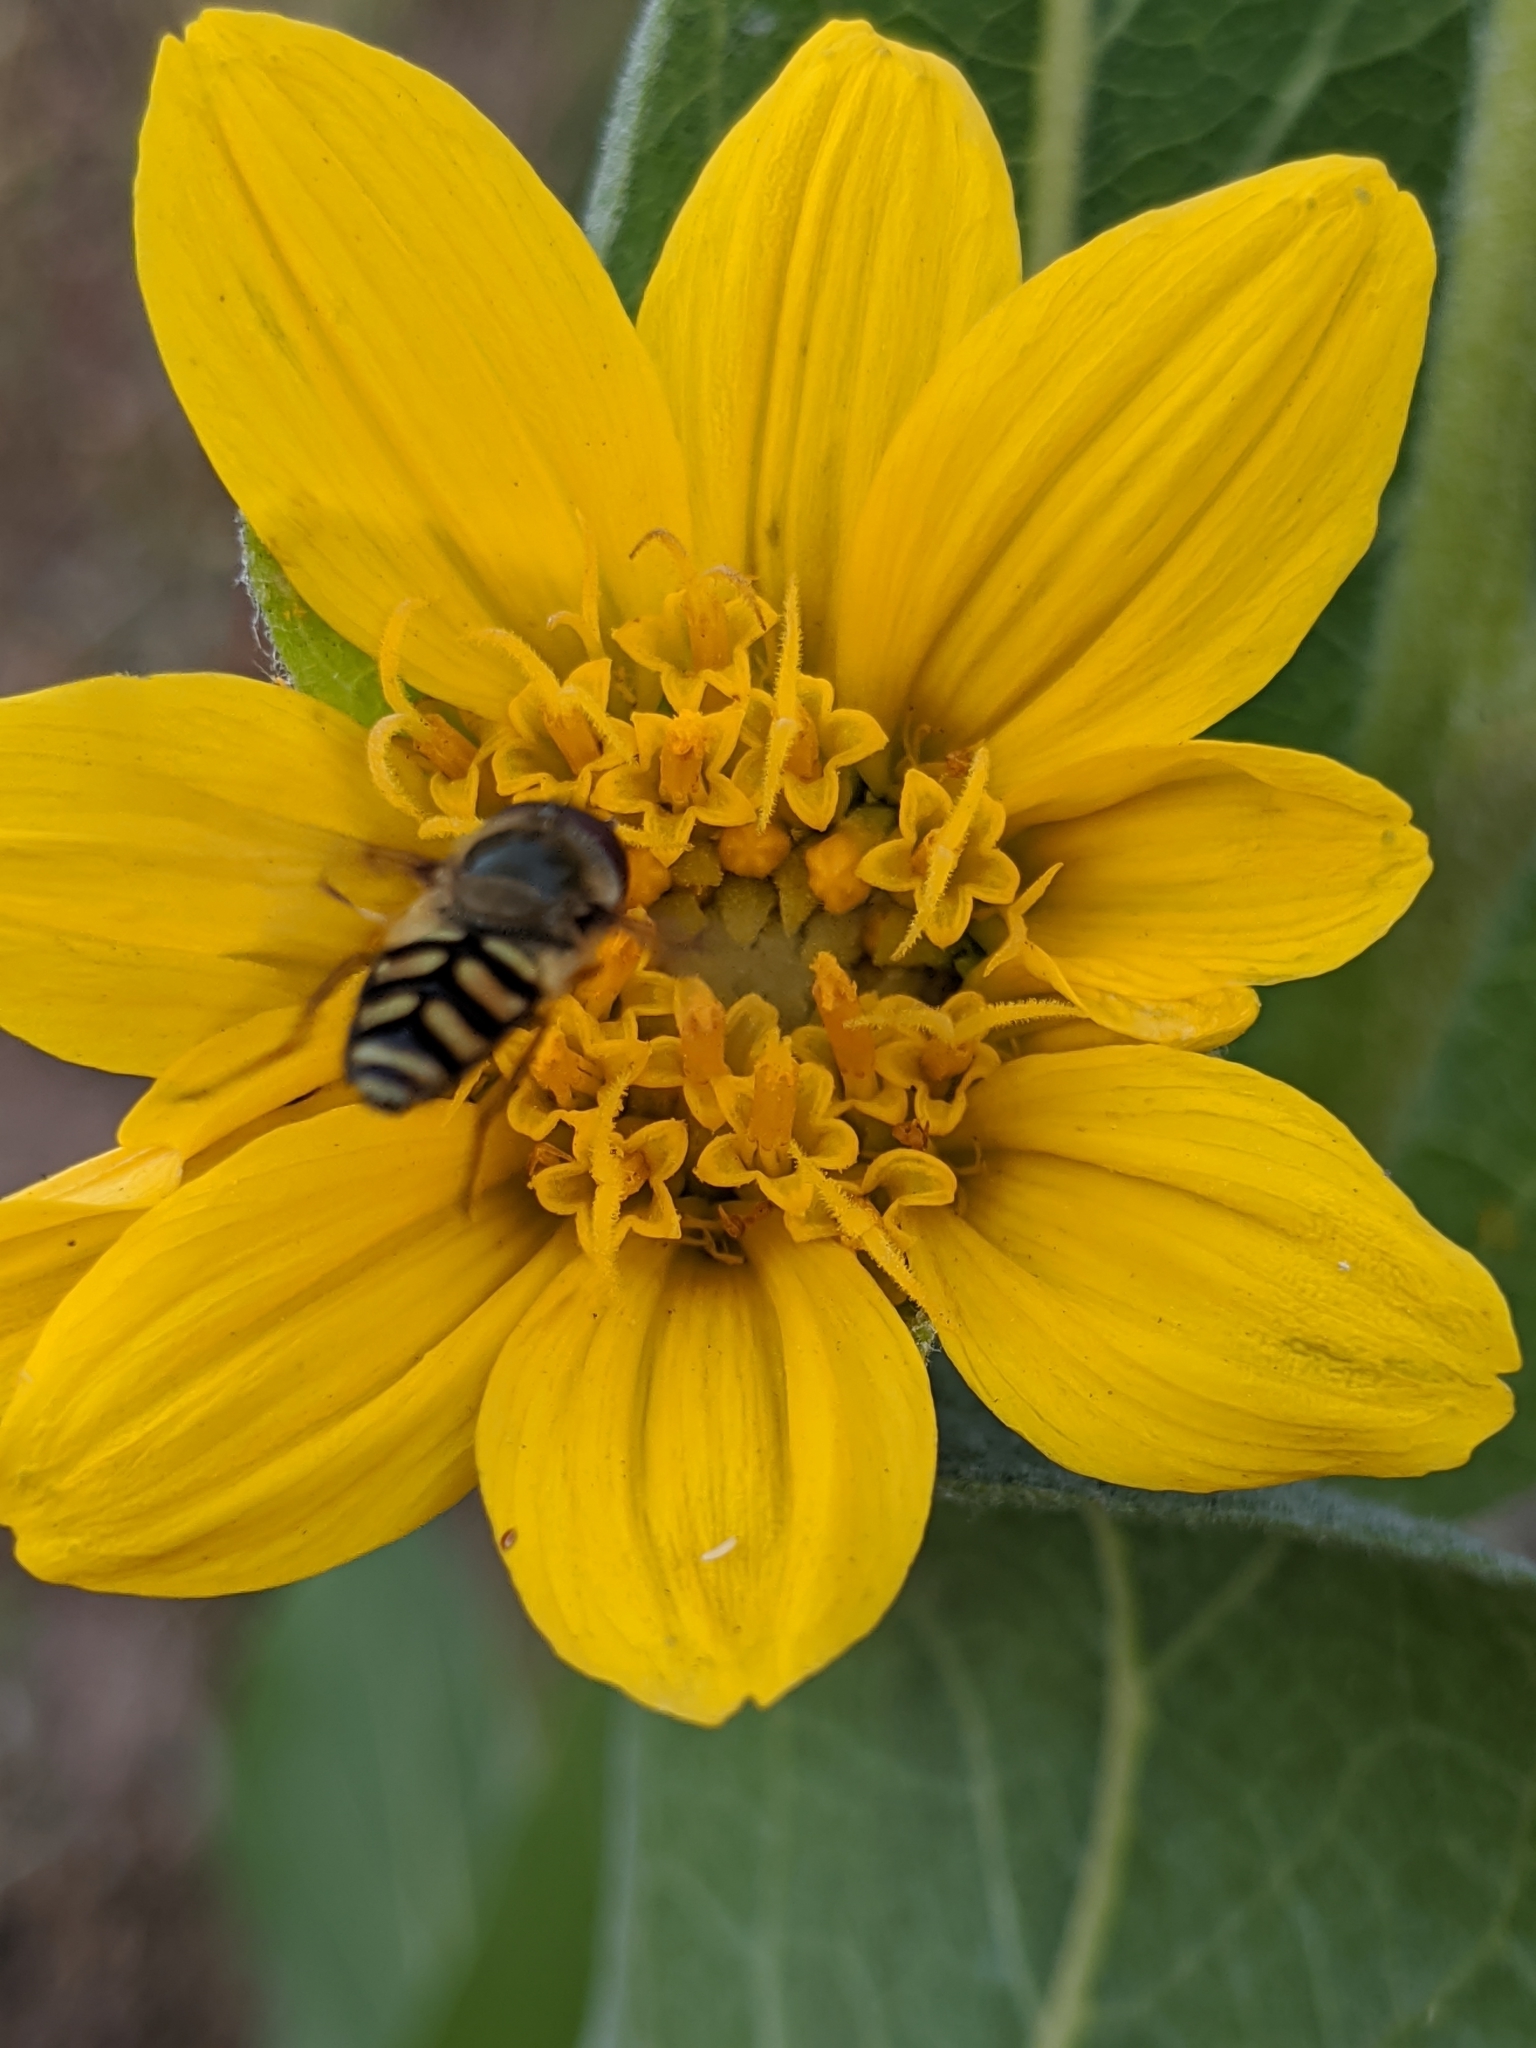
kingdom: Plantae
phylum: Tracheophyta
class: Magnoliopsida
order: Asterales
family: Asteraceae
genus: Wyethia
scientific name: Wyethia mollis
